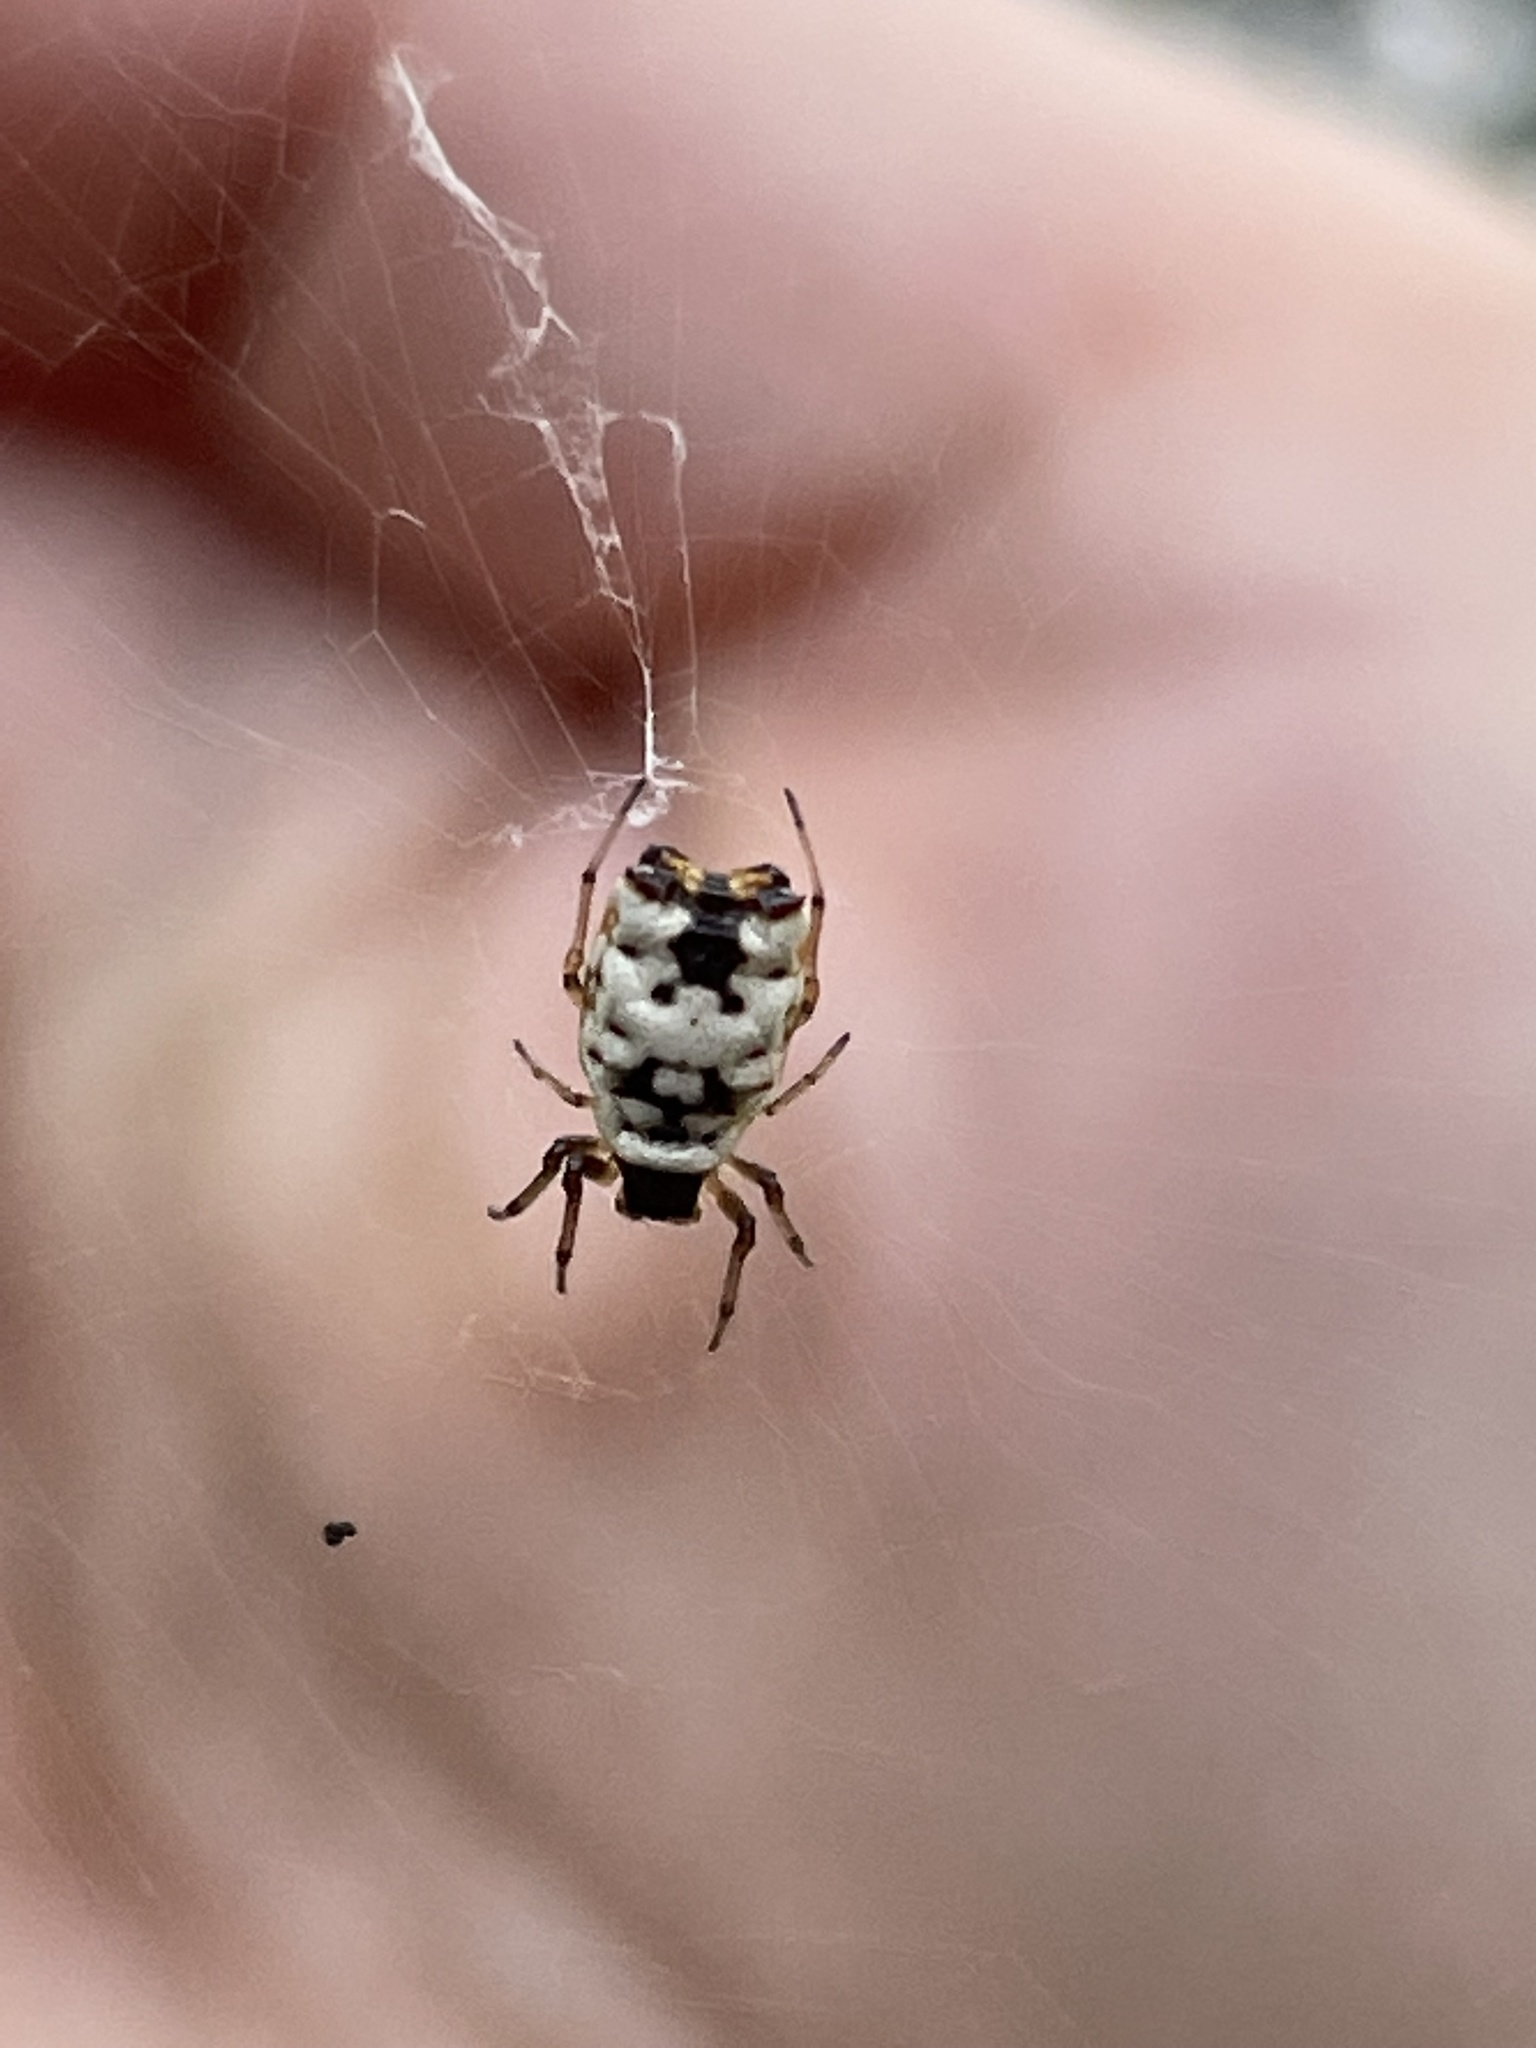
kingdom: Animalia
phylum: Arthropoda
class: Arachnida
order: Araneae
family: Araneidae
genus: Micrathena
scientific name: Micrathena mitrata
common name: Orb weavers
